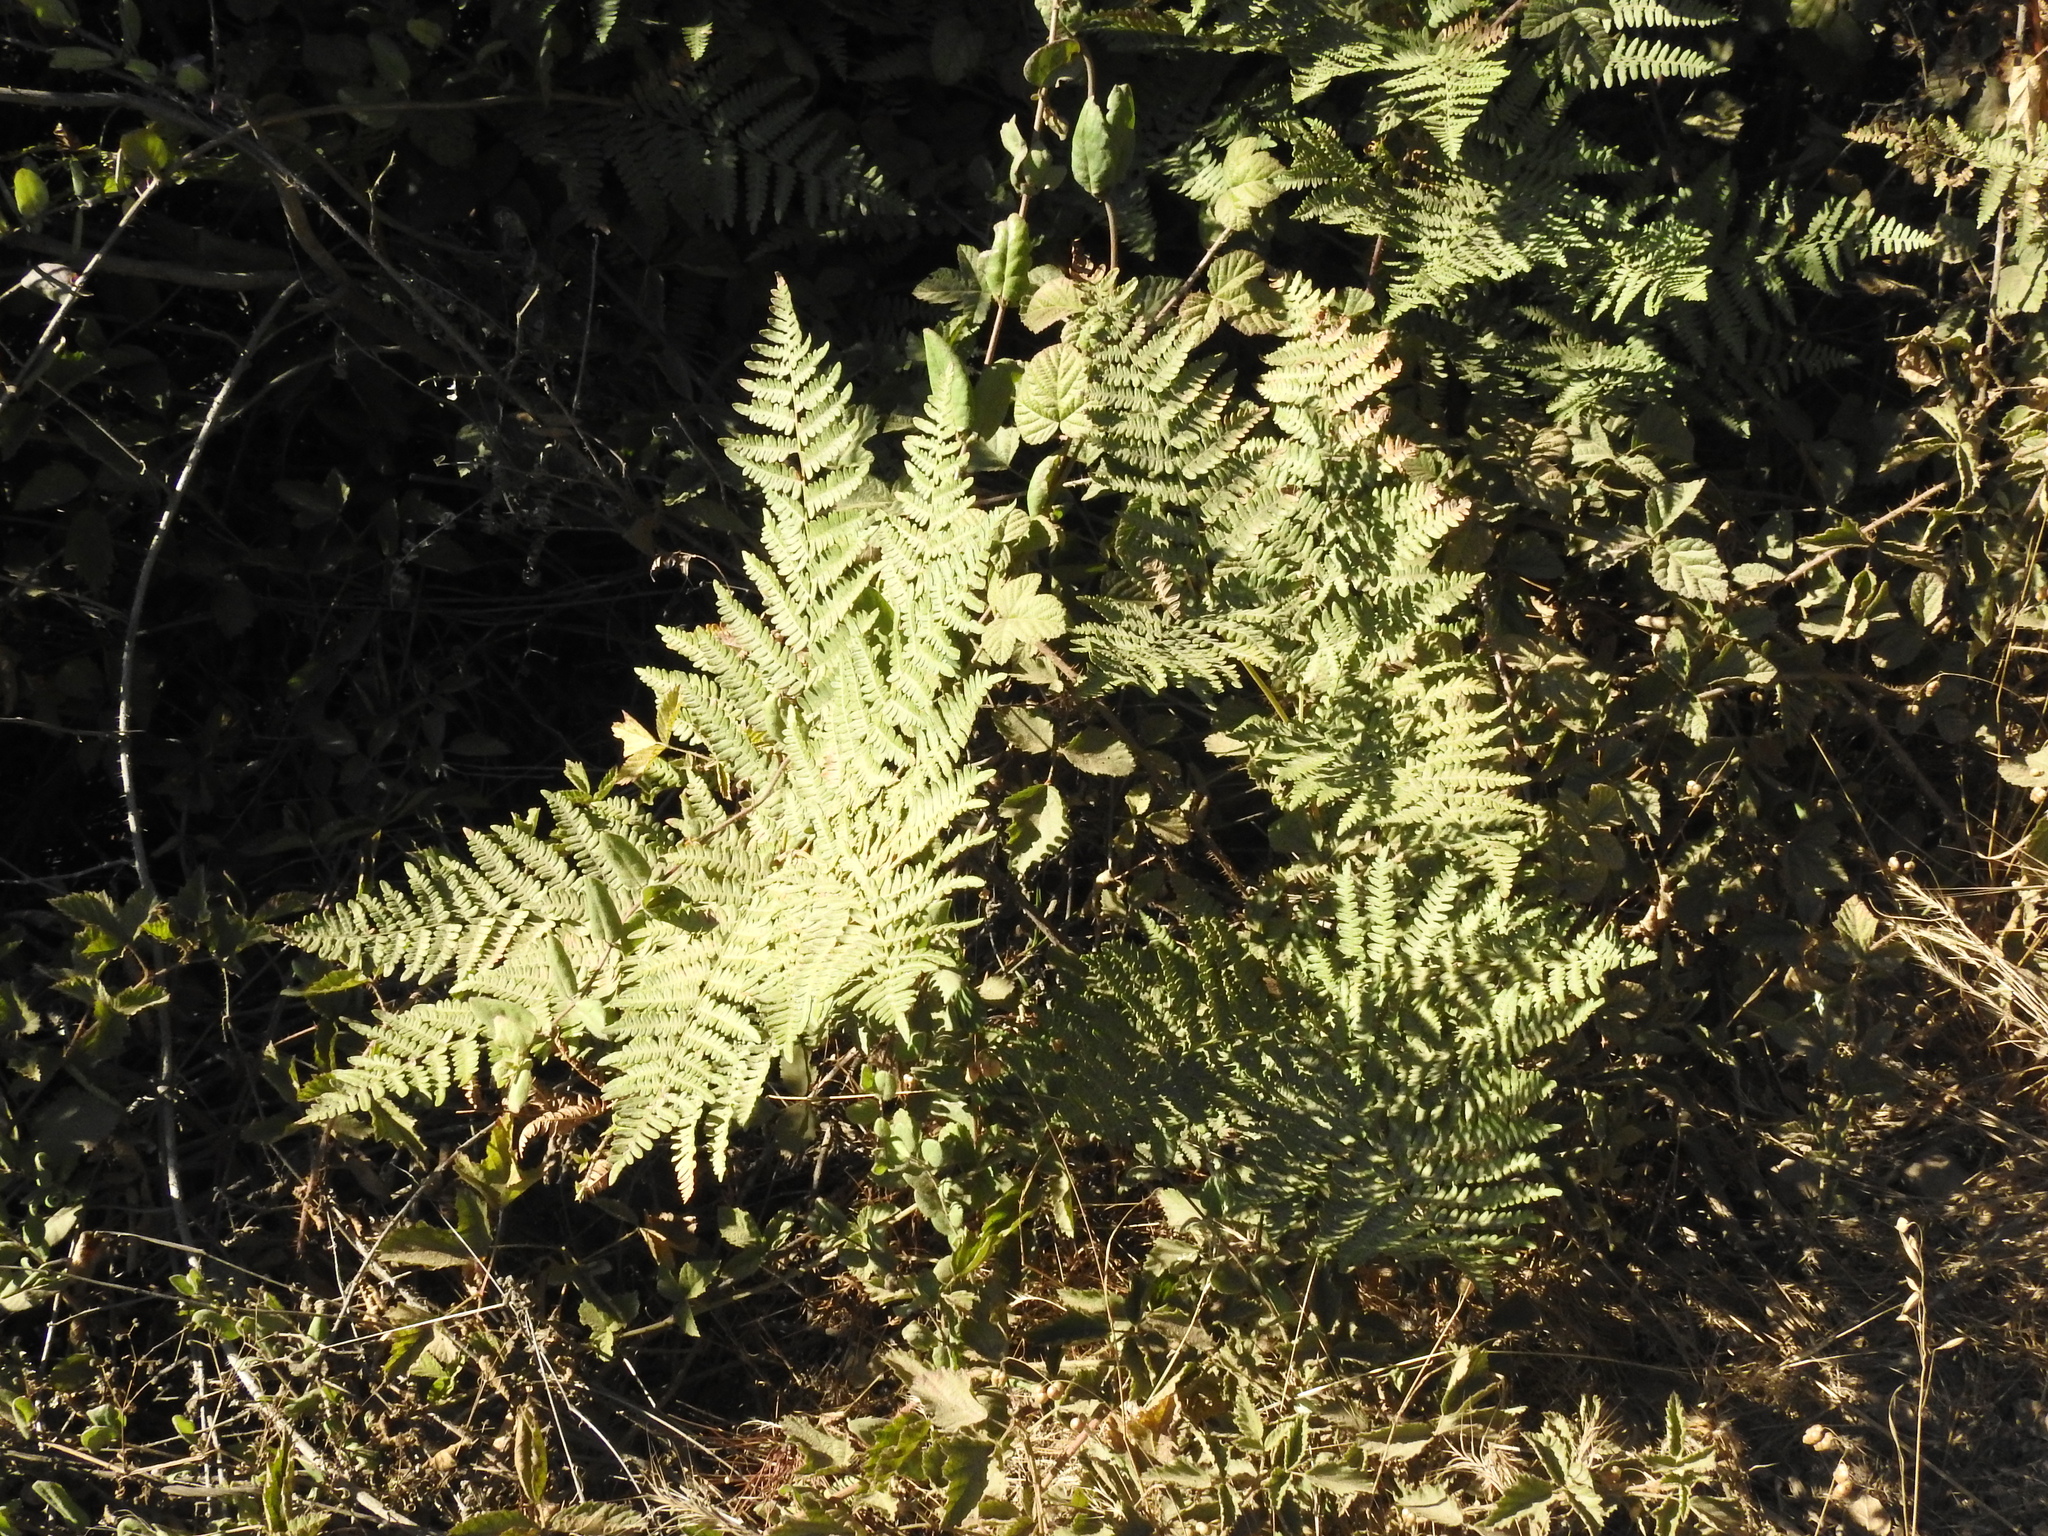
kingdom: Plantae
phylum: Tracheophyta
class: Polypodiopsida
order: Polypodiales
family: Dennstaedtiaceae
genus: Pteridium
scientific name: Pteridium aquilinum
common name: Bracken
